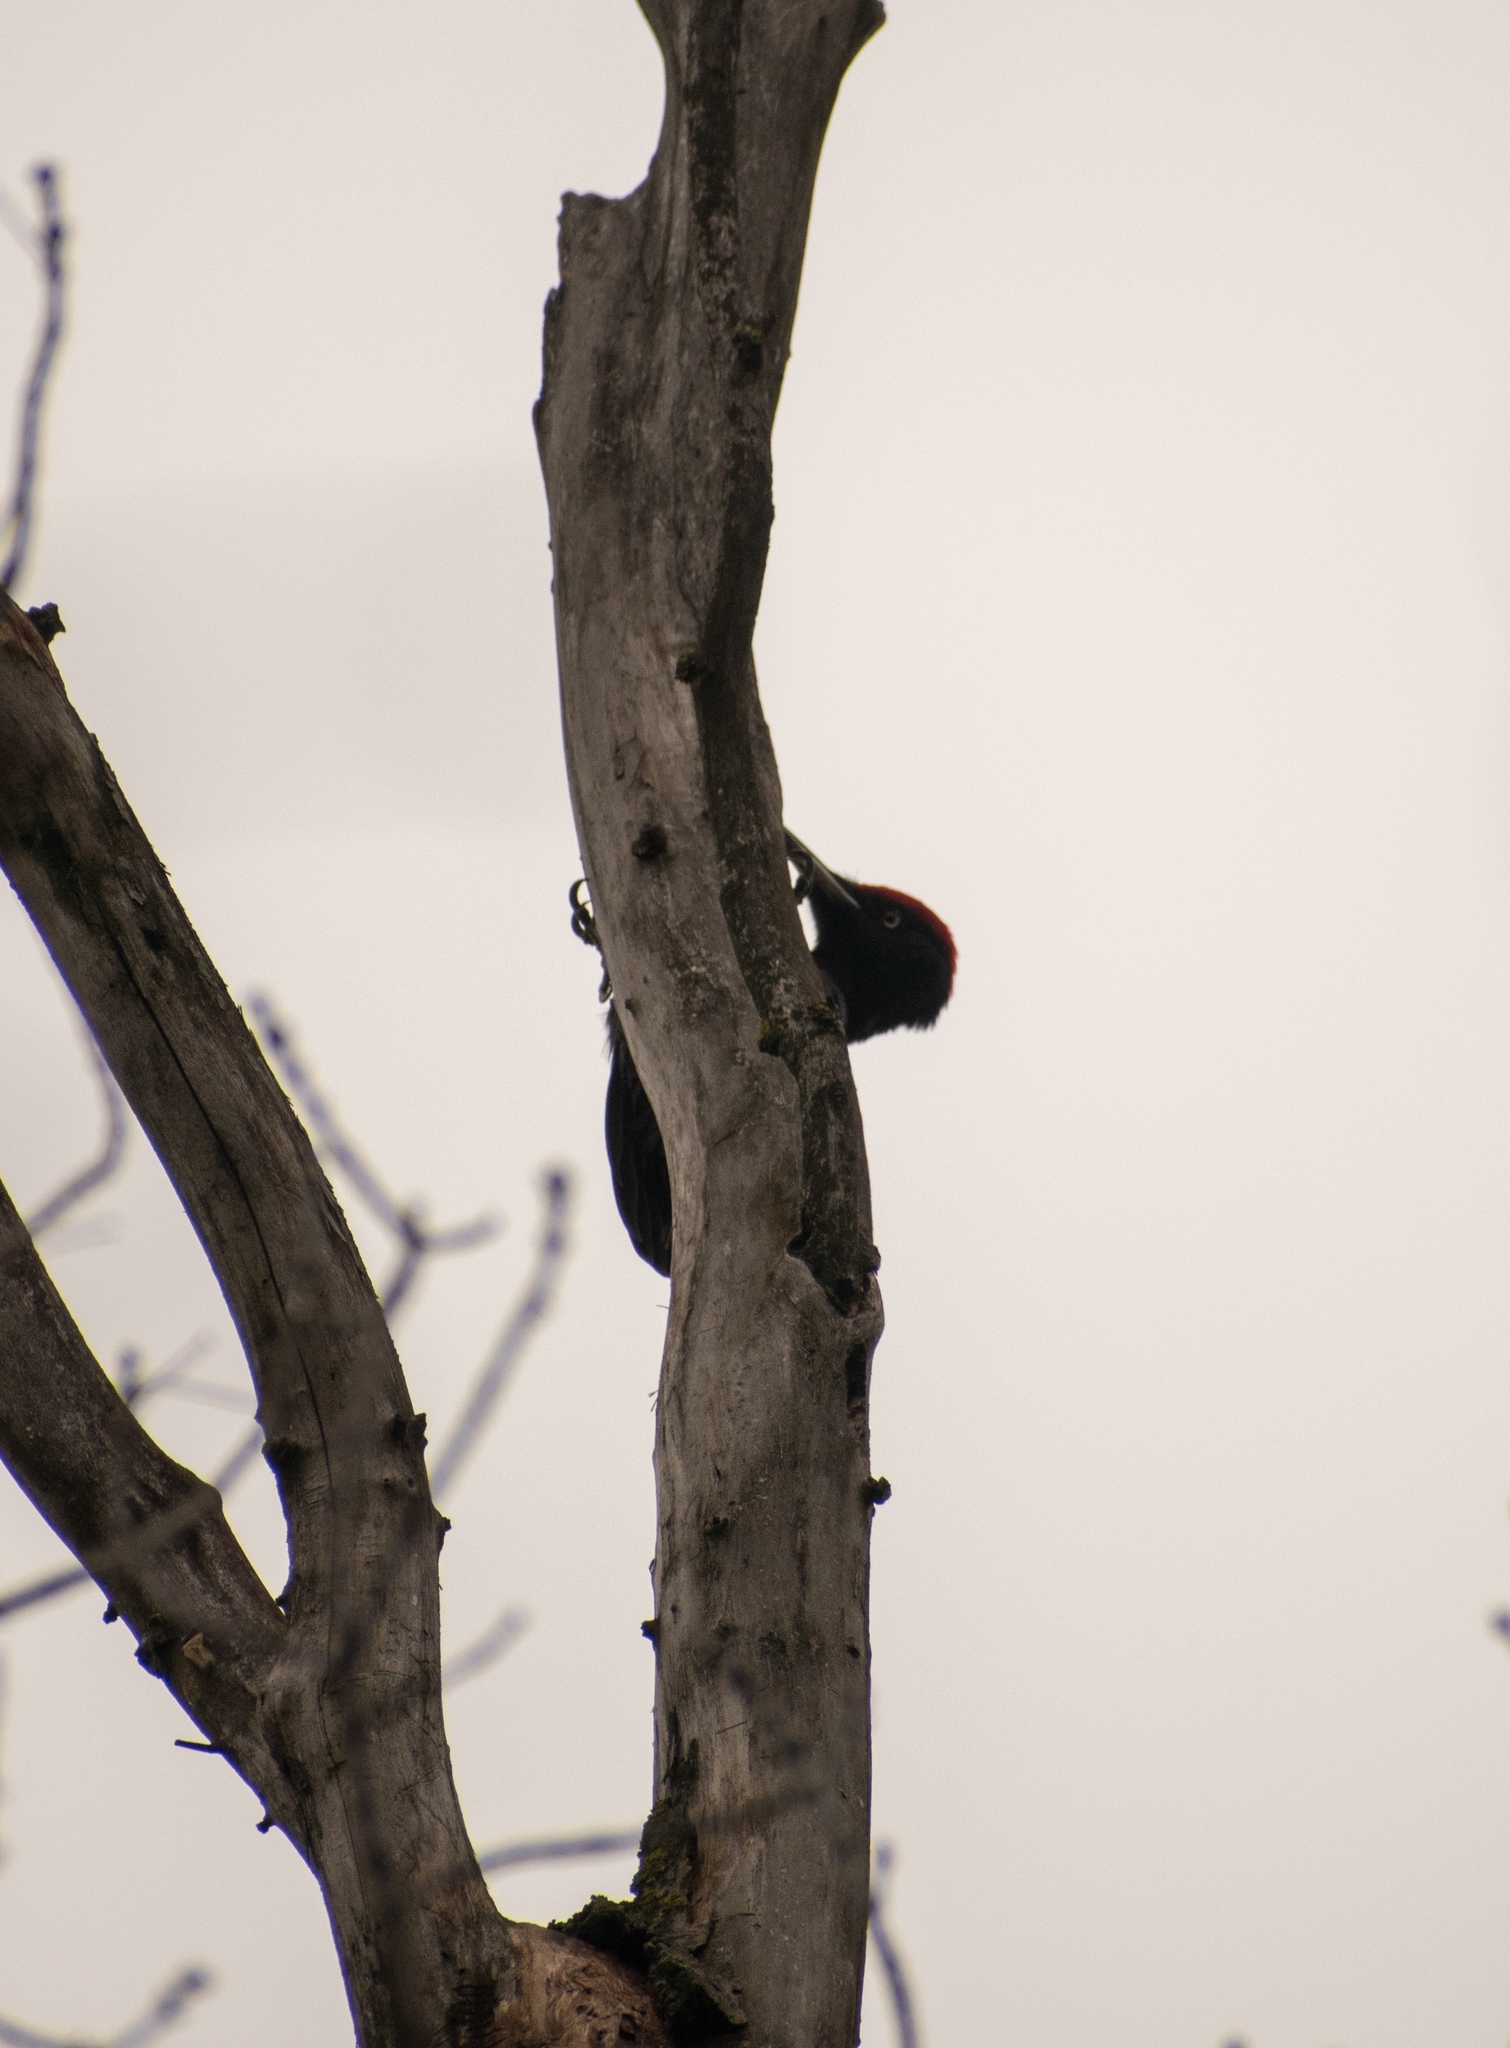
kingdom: Animalia
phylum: Chordata
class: Aves
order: Piciformes
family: Picidae
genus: Dryocopus
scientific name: Dryocopus martius
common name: Black woodpecker
